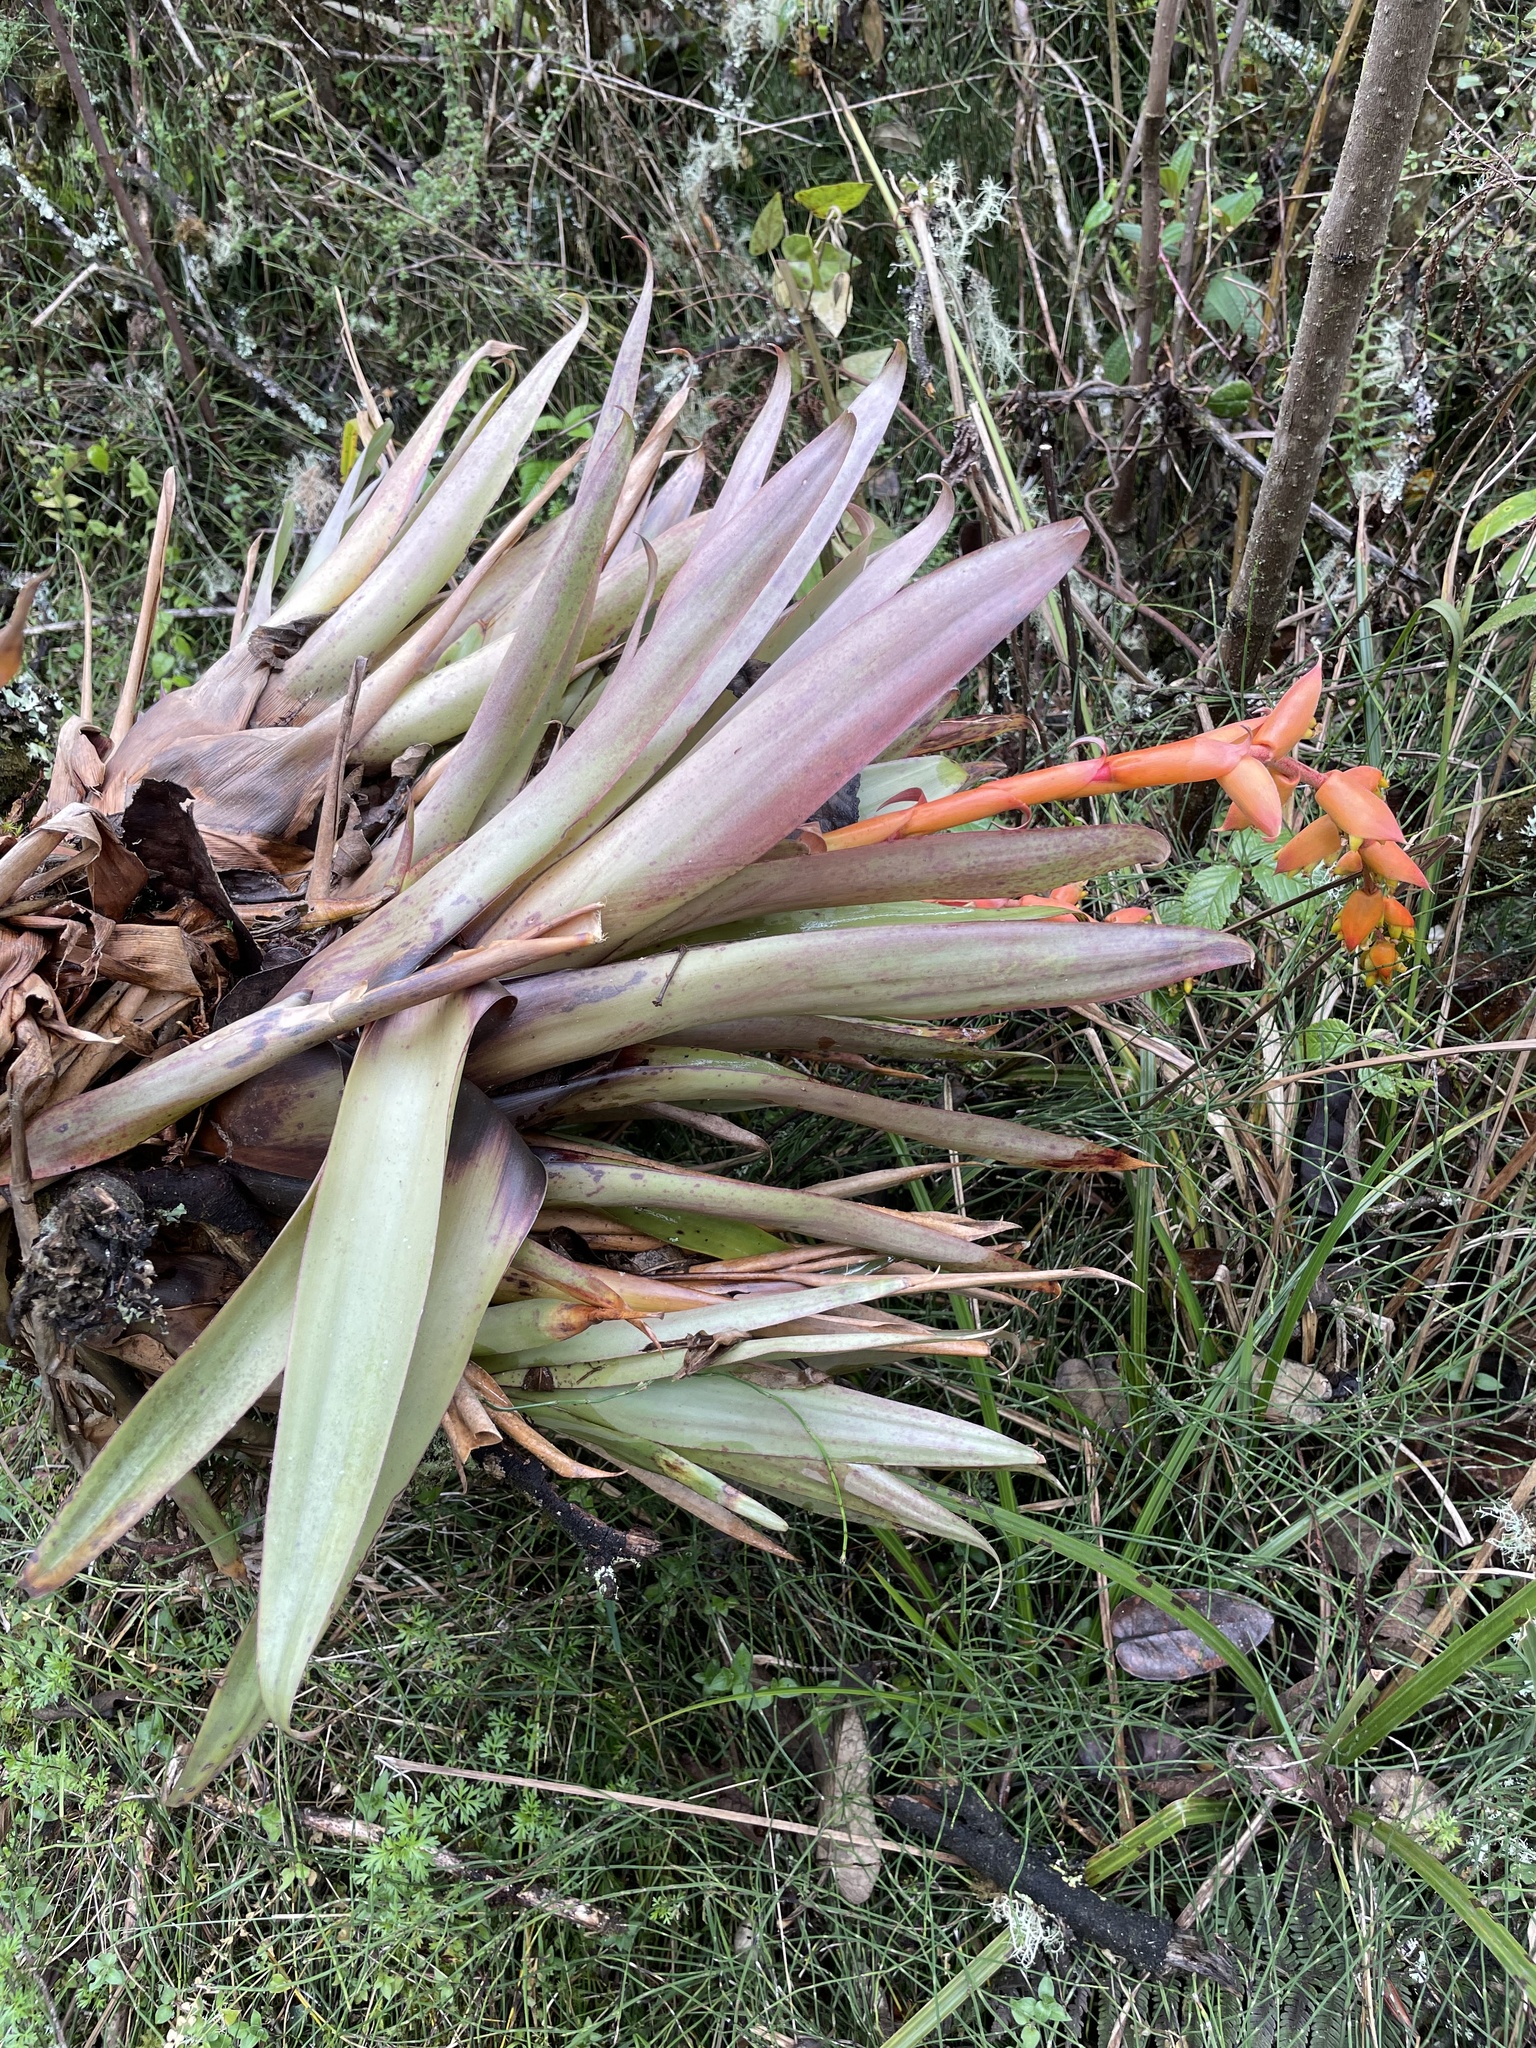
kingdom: Plantae
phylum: Tracheophyta
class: Liliopsida
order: Poales
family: Bromeliaceae
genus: Racinaea
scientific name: Racinaea tetrantha
